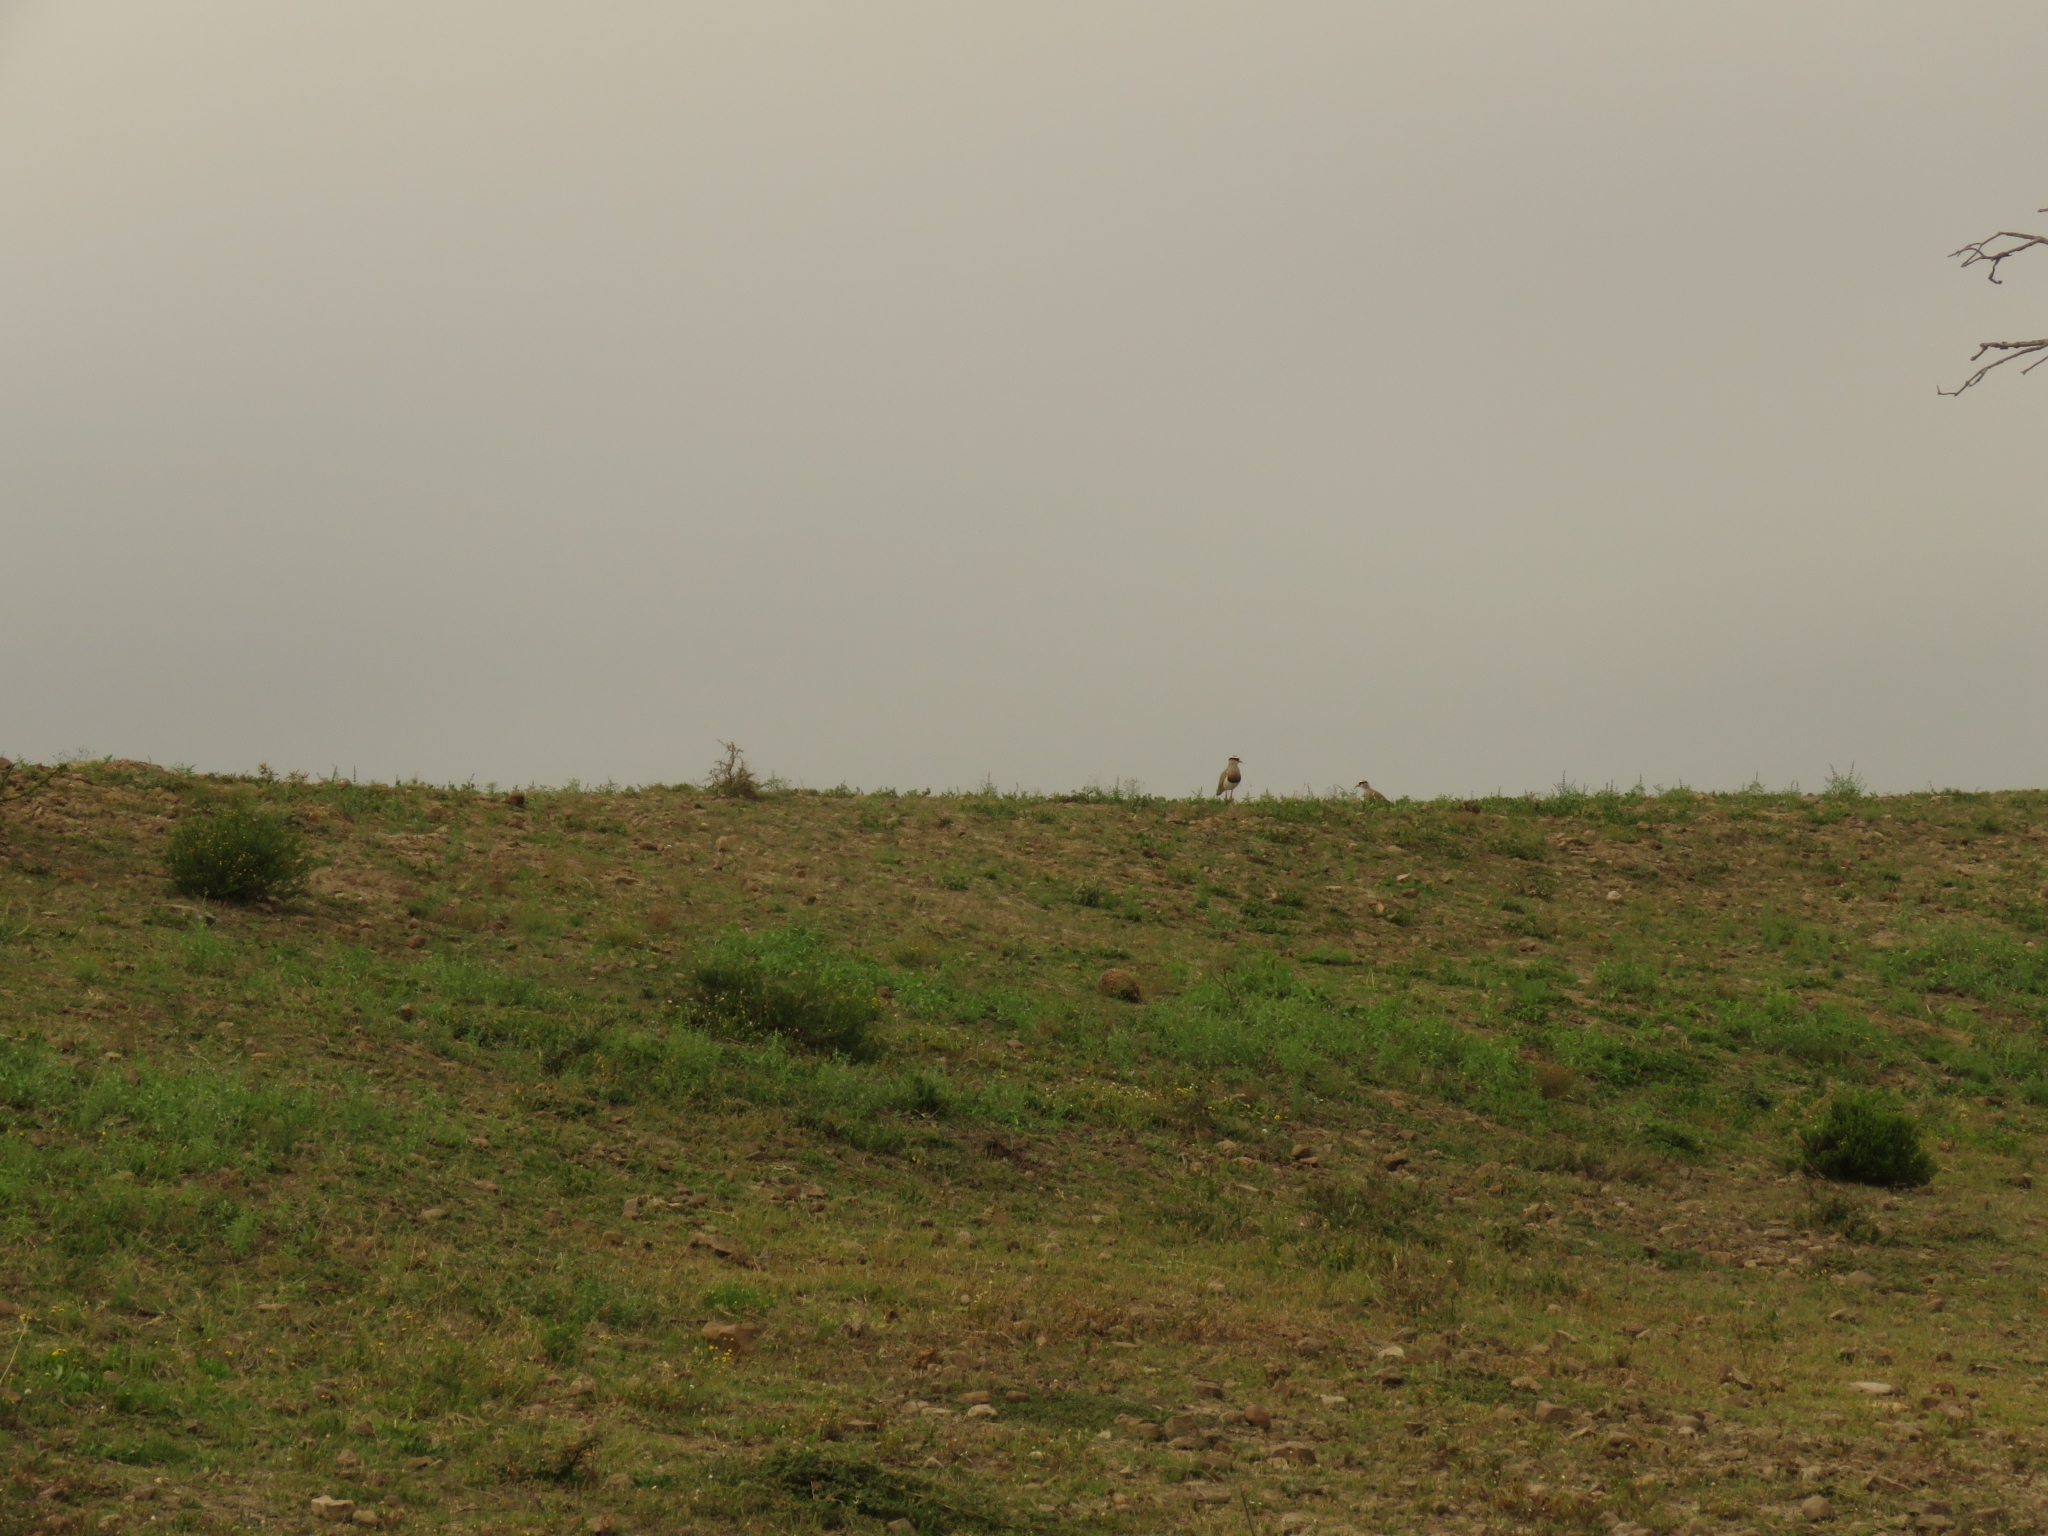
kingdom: Animalia
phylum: Chordata
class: Aves
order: Charadriiformes
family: Charadriidae
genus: Vanellus
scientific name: Vanellus coronatus
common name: Crowned lapwing
